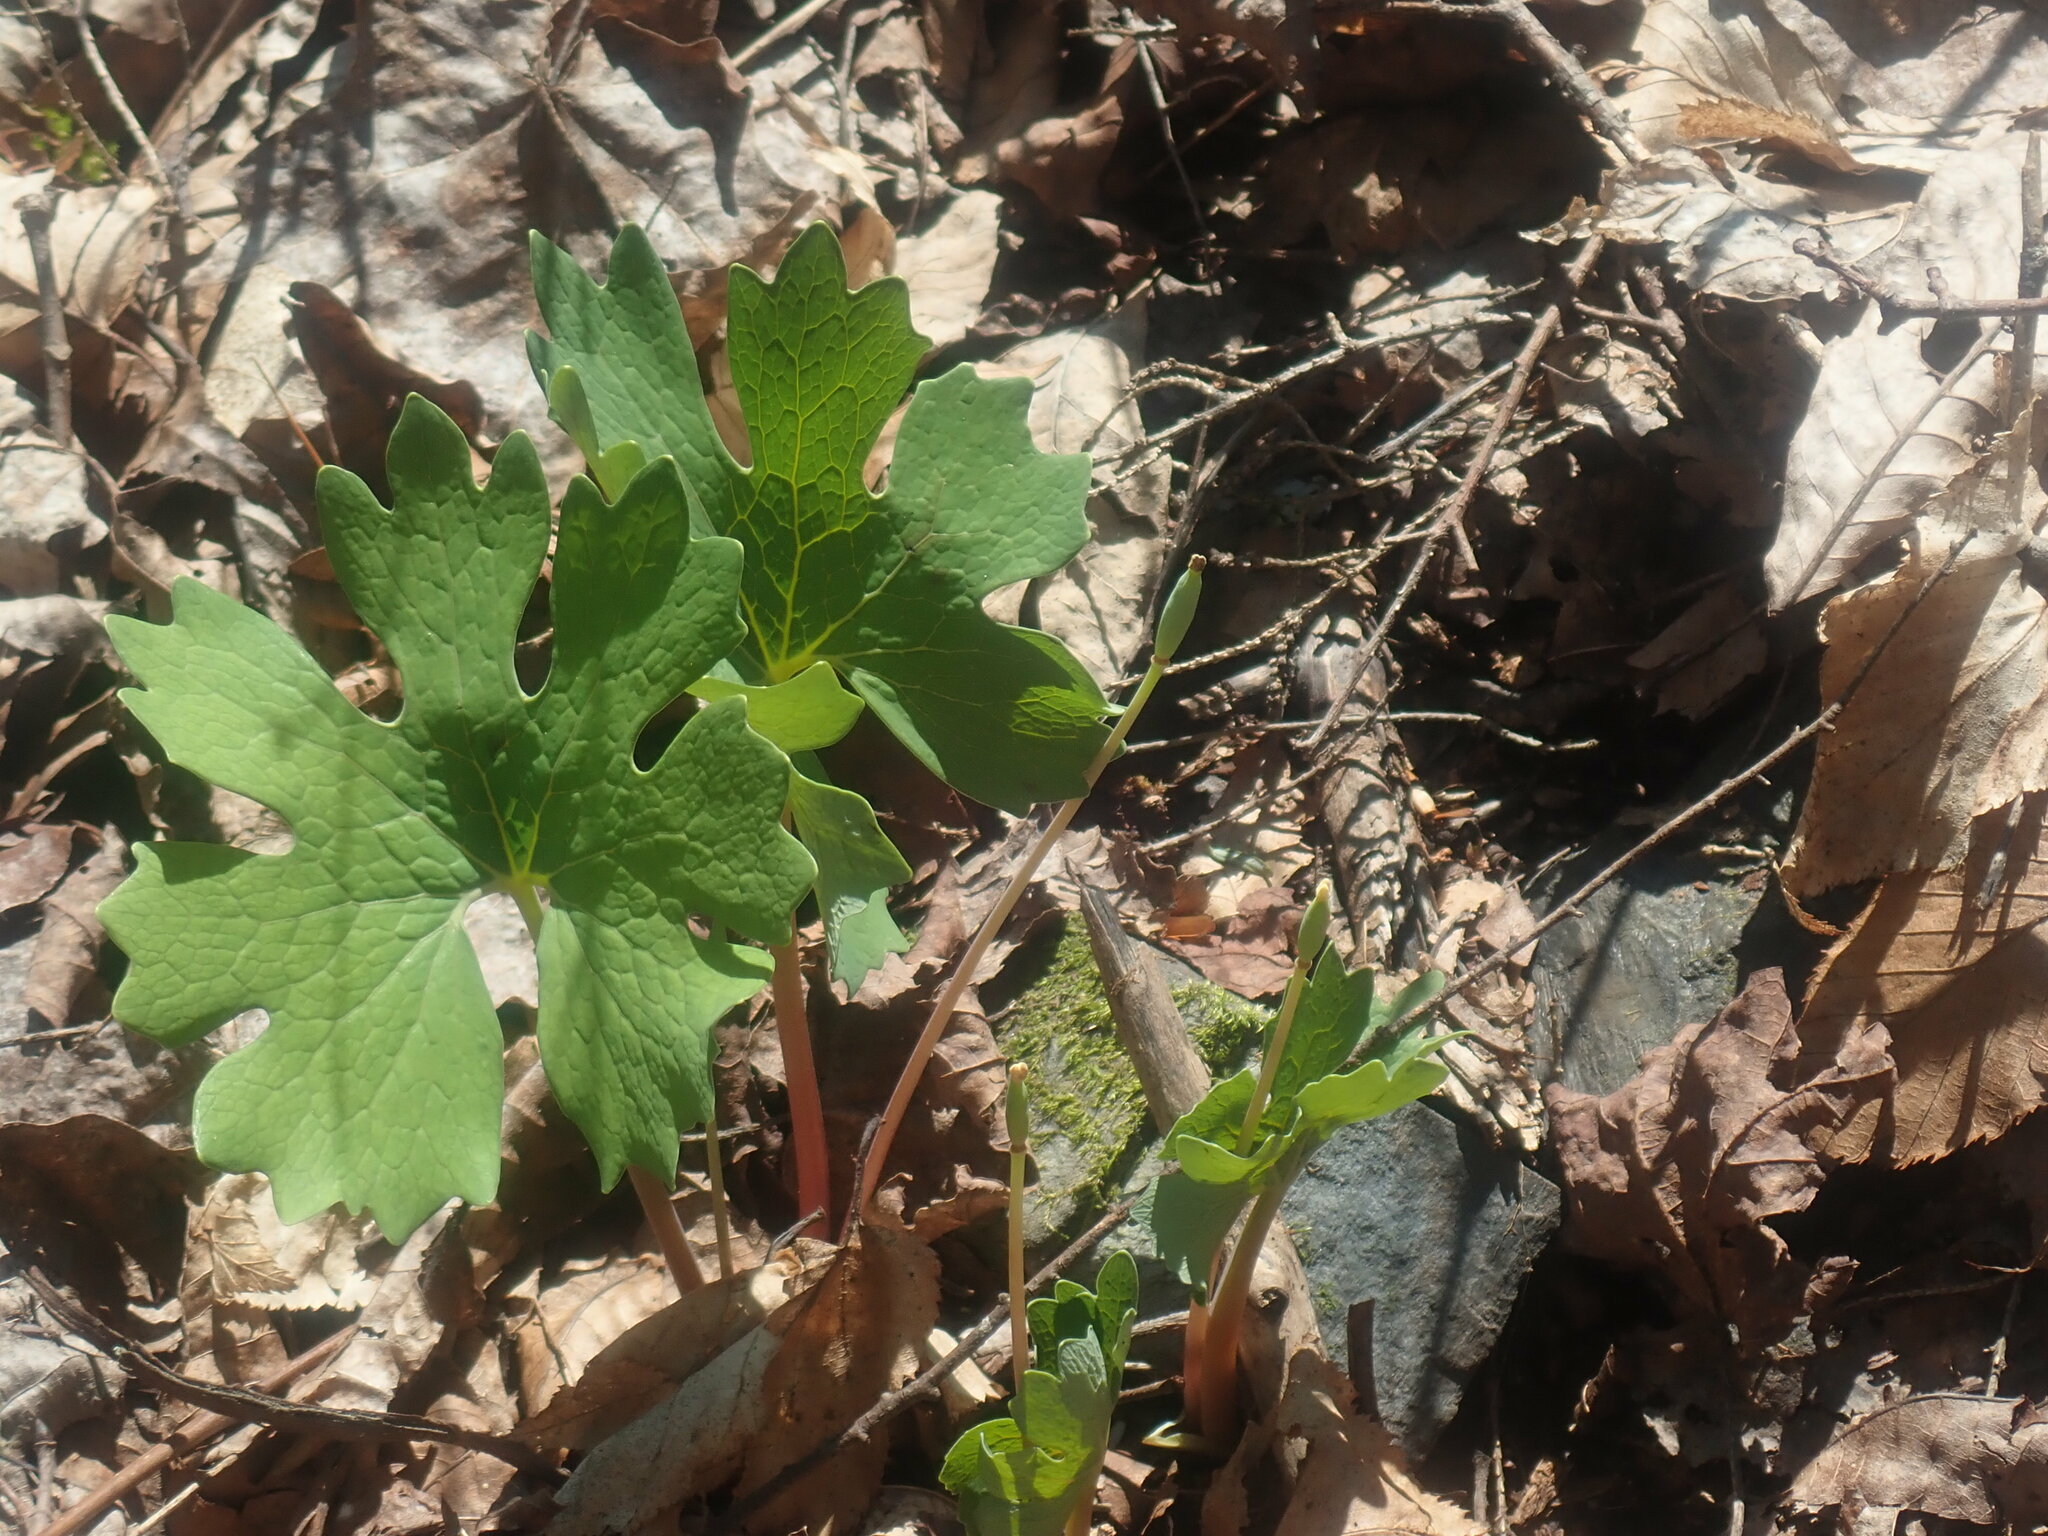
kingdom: Plantae
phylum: Tracheophyta
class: Magnoliopsida
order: Ranunculales
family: Papaveraceae
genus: Sanguinaria
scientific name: Sanguinaria canadensis
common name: Bloodroot
